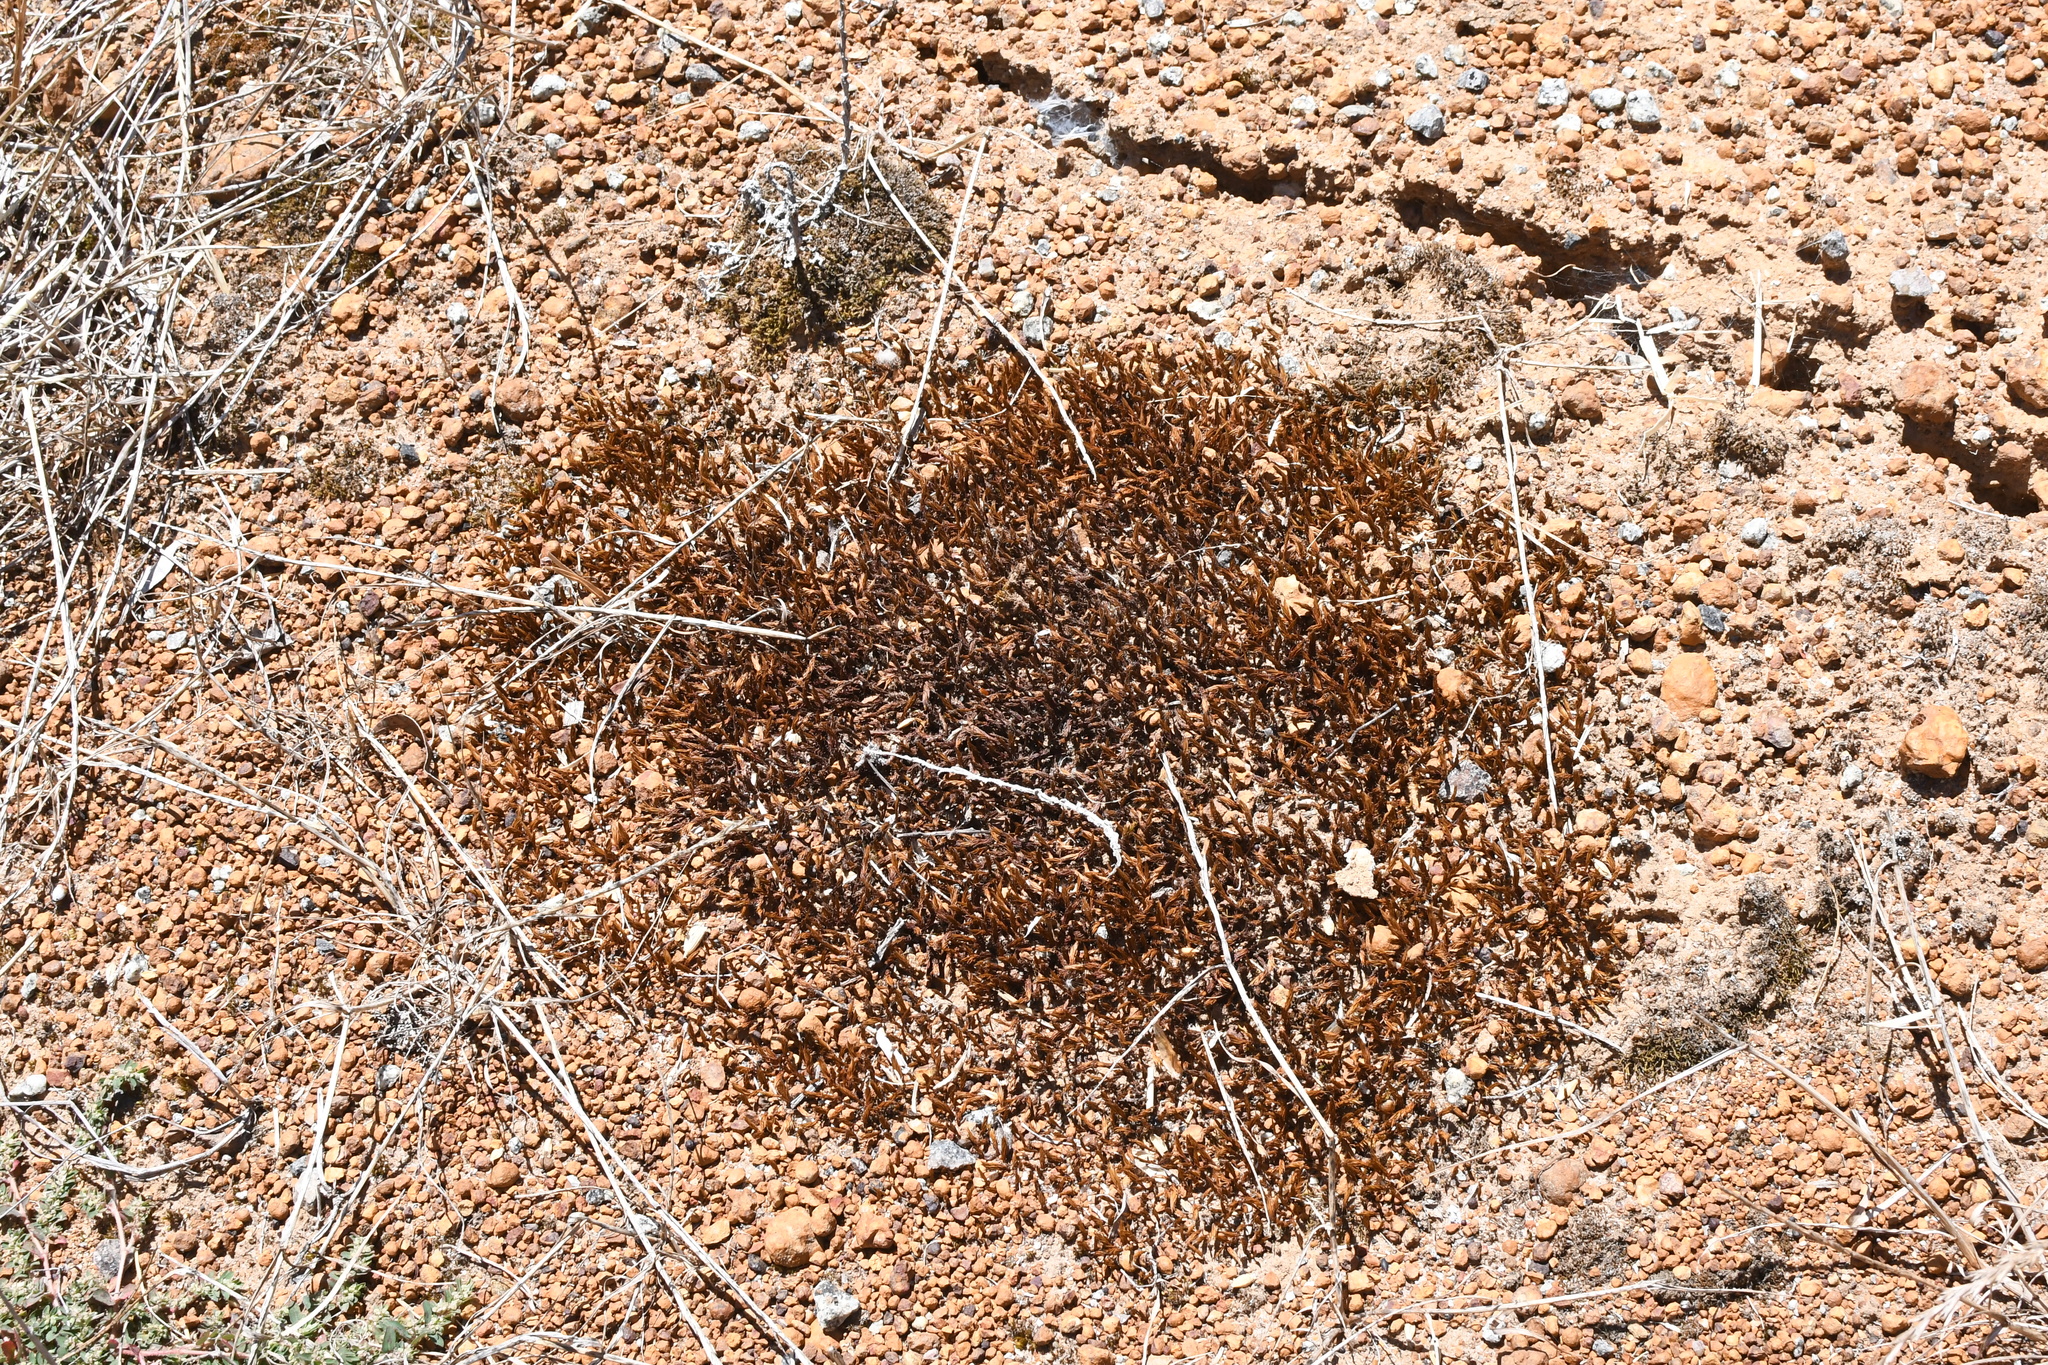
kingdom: Plantae
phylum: Bryophyta
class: Polytrichopsida
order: Polytrichales
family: Polytrichaceae
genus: Polytrichum
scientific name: Polytrichum juniperinum
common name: Juniper haircap moss
